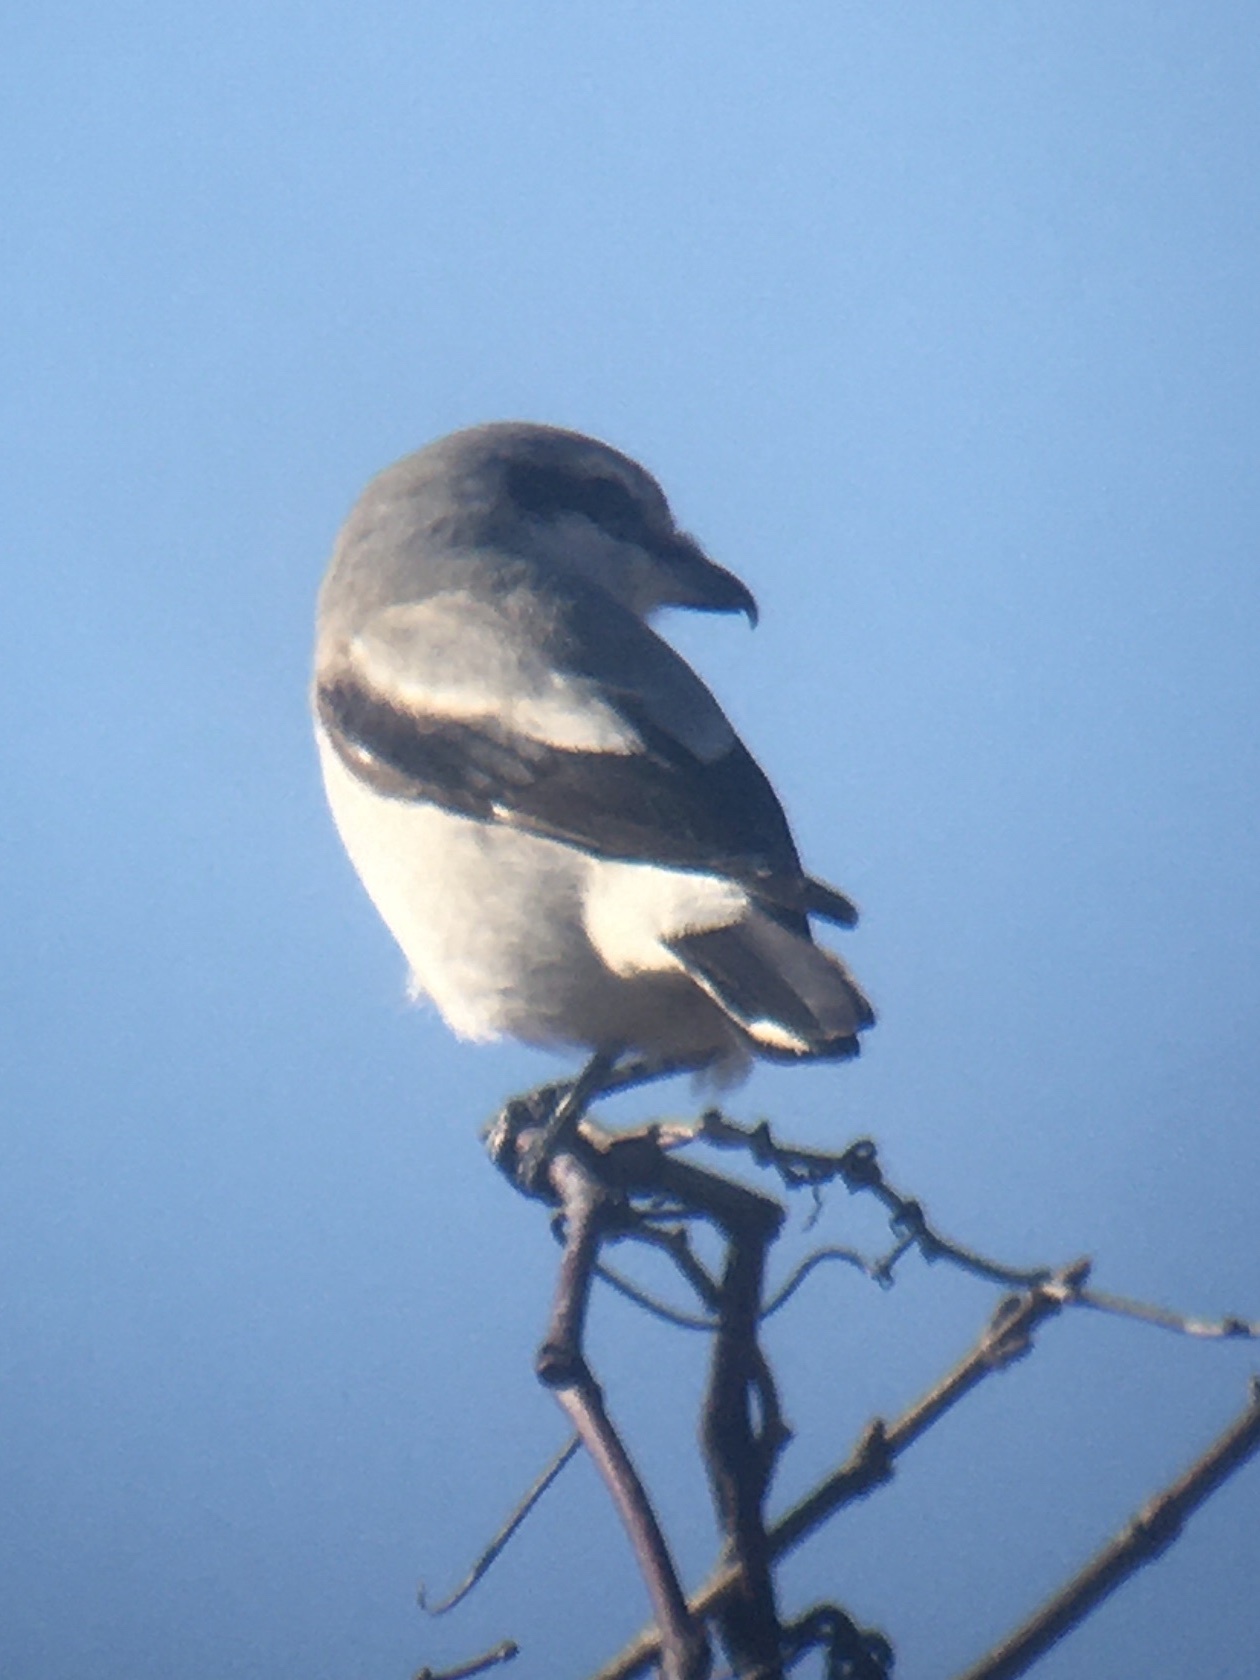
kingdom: Animalia
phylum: Chordata
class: Aves
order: Passeriformes
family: Laniidae
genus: Lanius
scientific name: Lanius borealis
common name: Northern shrike
